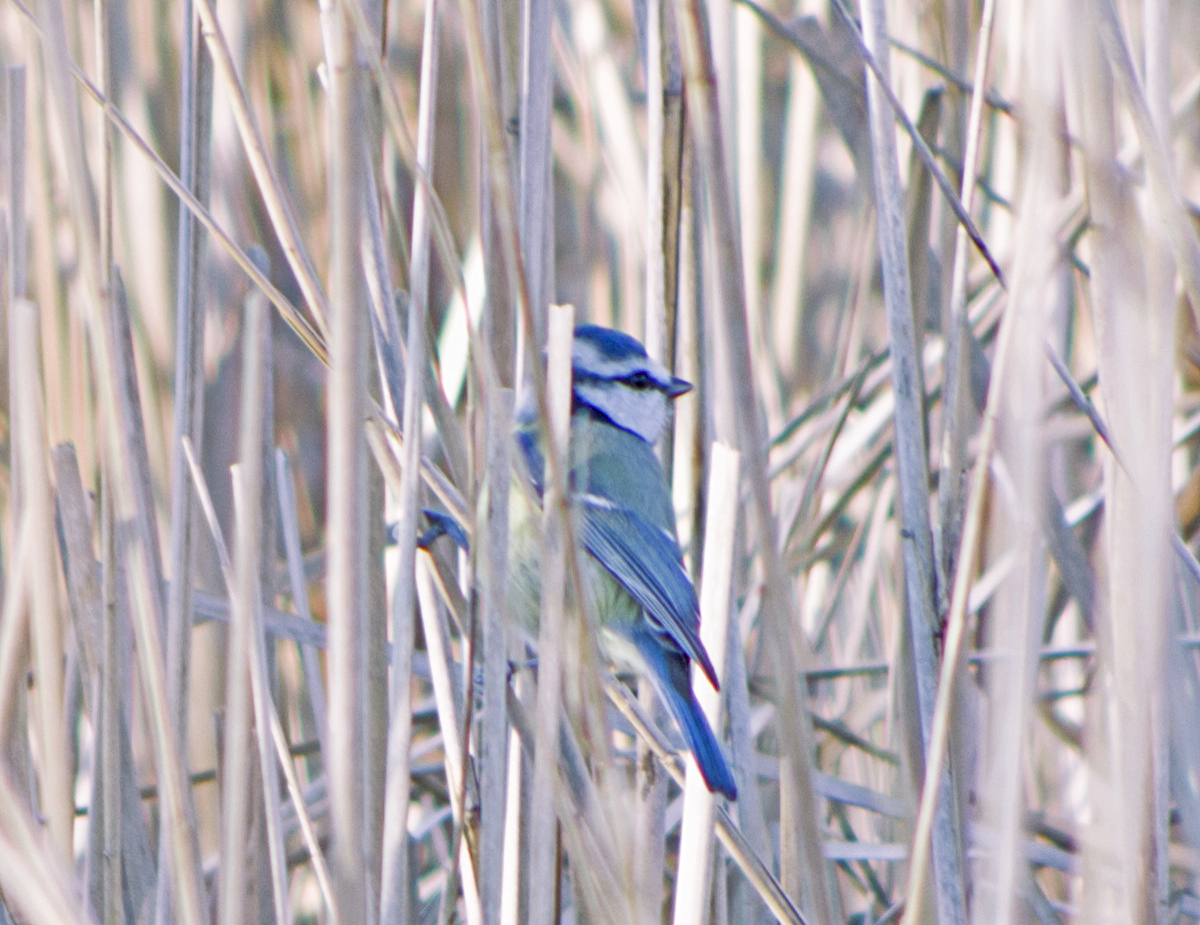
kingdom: Animalia
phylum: Chordata
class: Aves
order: Passeriformes
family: Paridae
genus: Cyanistes
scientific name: Cyanistes caeruleus
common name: Eurasian blue tit
